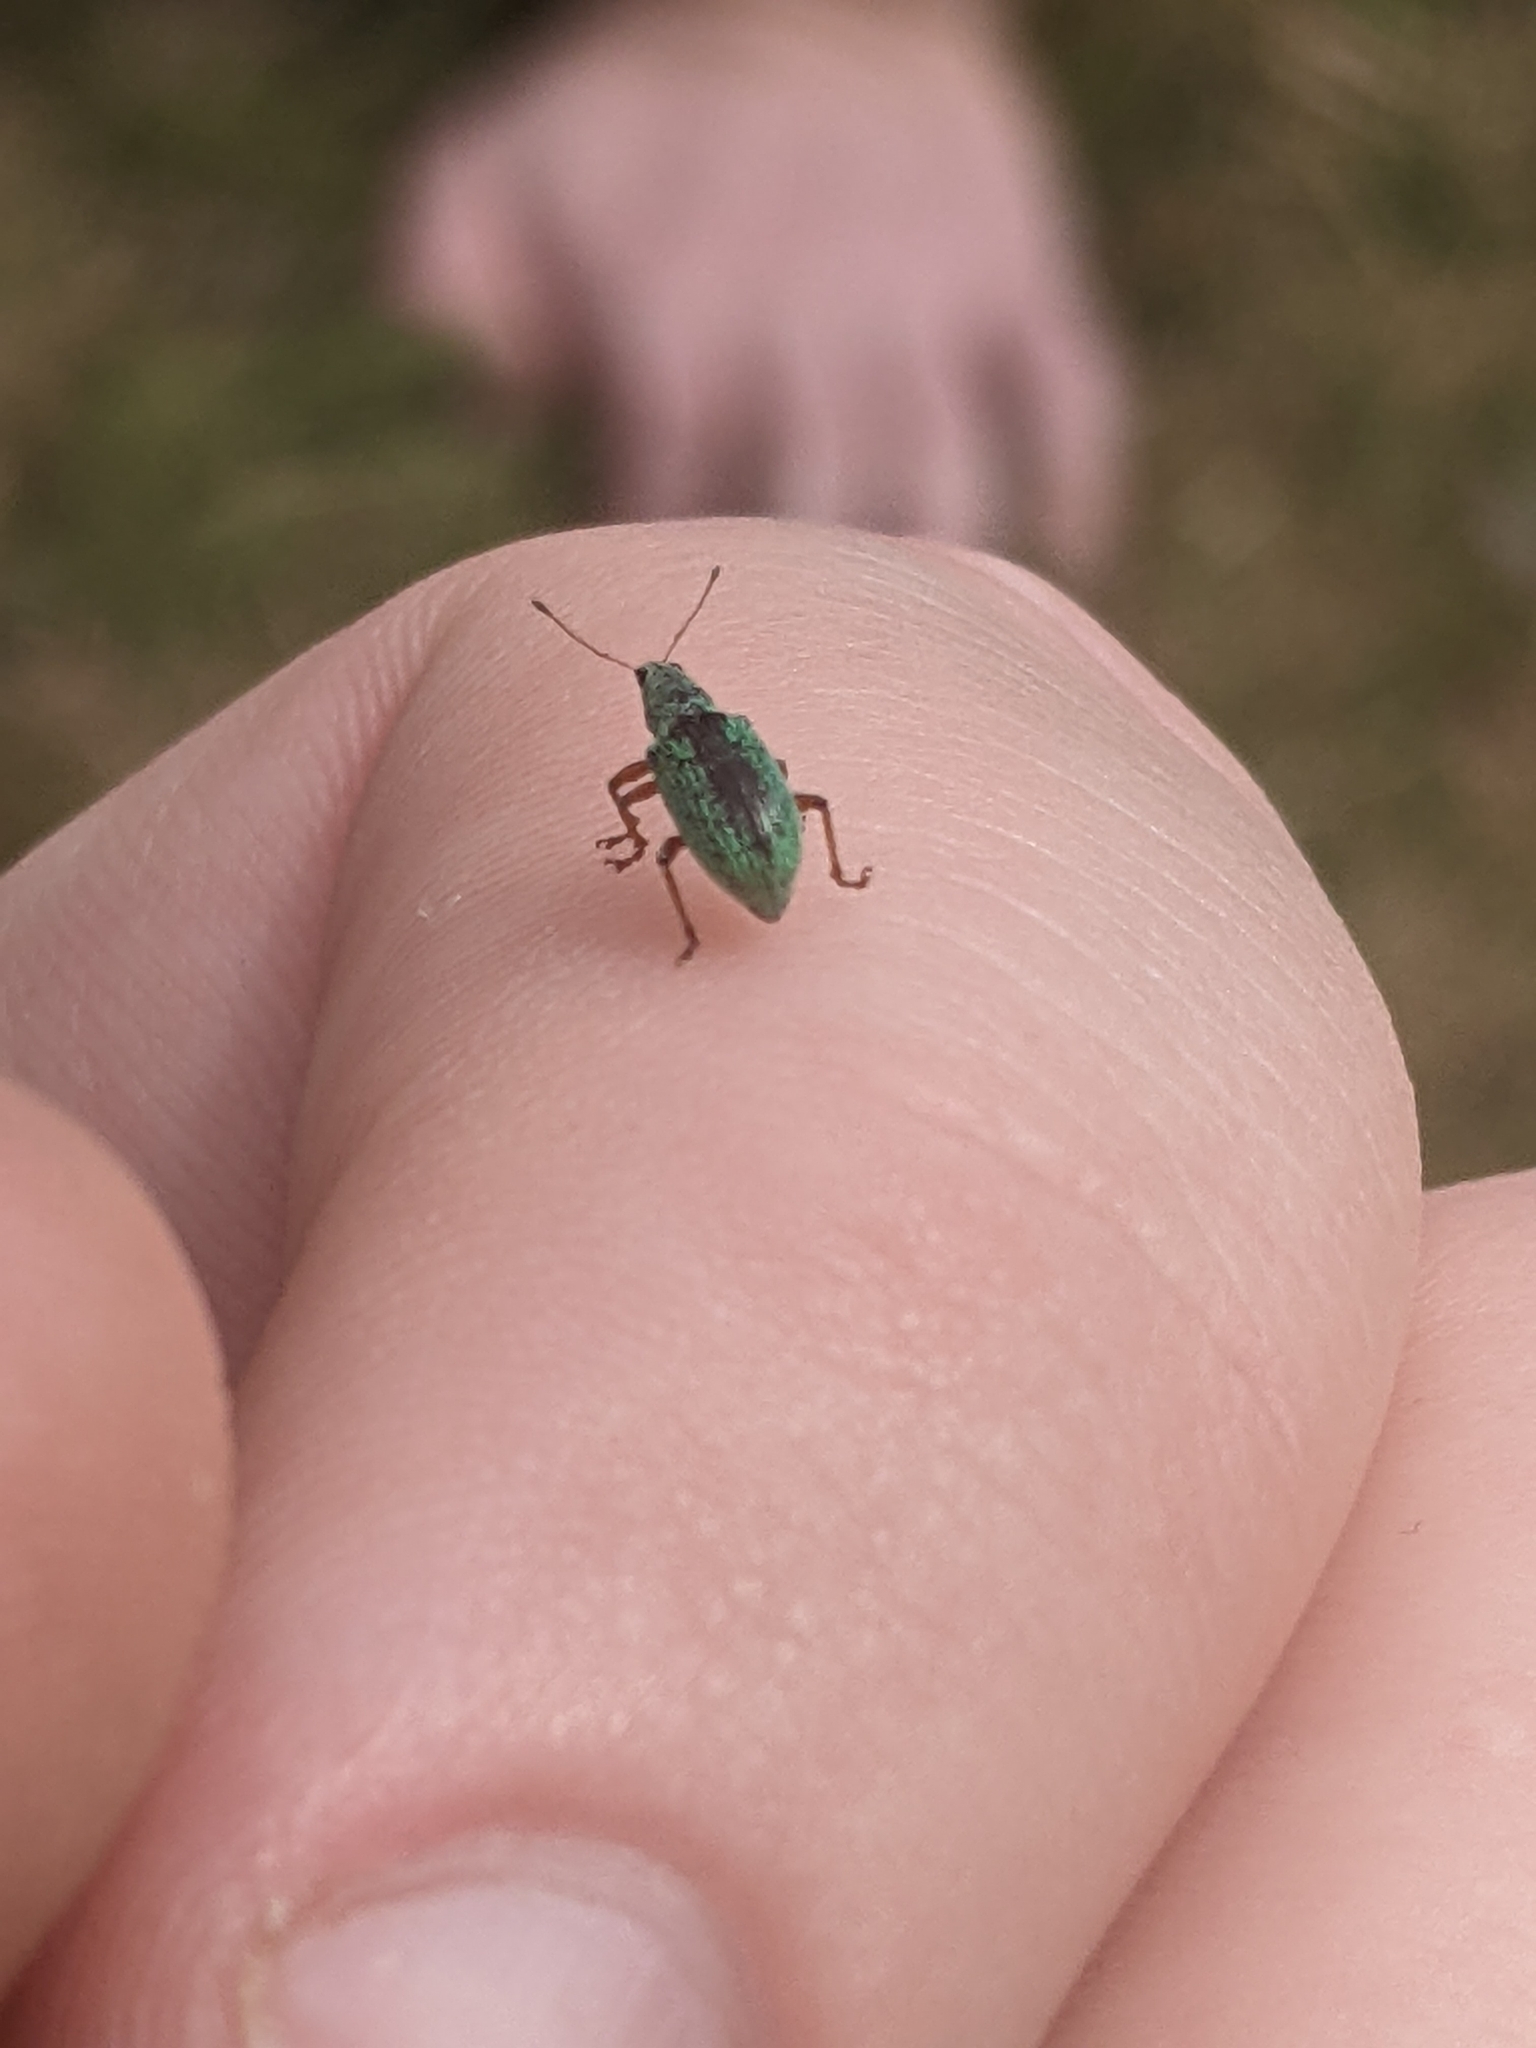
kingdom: Animalia
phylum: Arthropoda
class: Insecta
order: Coleoptera
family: Curculionidae
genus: Polydrusus
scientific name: Polydrusus formosus
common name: Weevil
